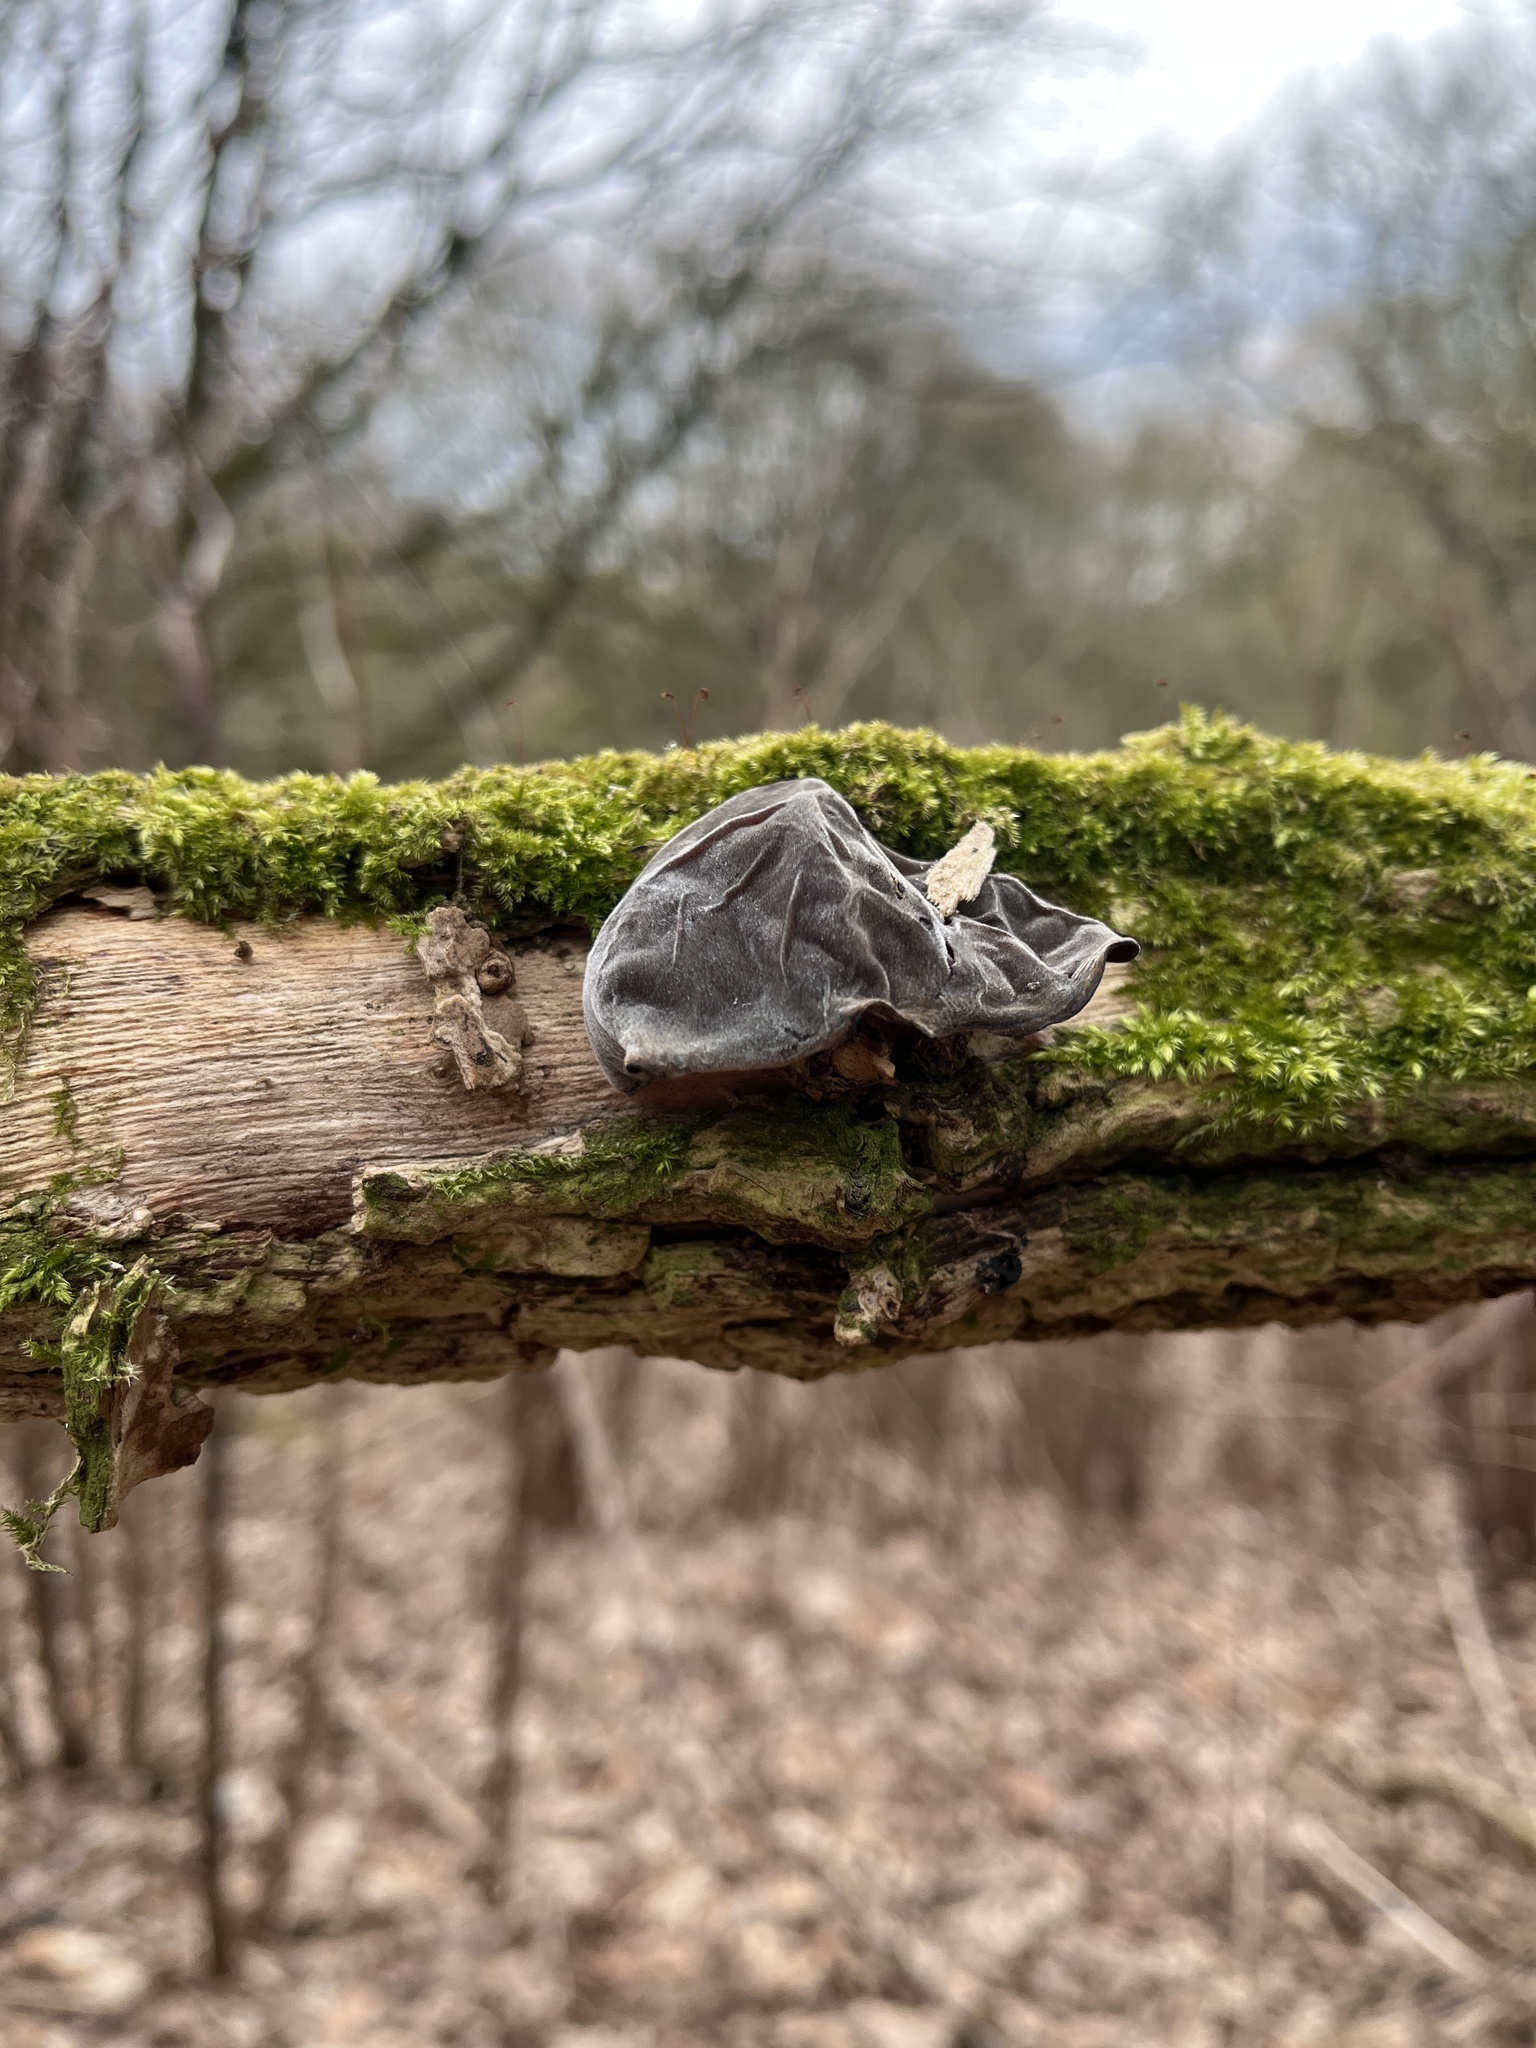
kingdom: Fungi
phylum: Basidiomycota
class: Agaricomycetes
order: Auriculariales
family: Auriculariaceae
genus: Auricularia
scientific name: Auricularia auricula-judae
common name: Jelly ear
